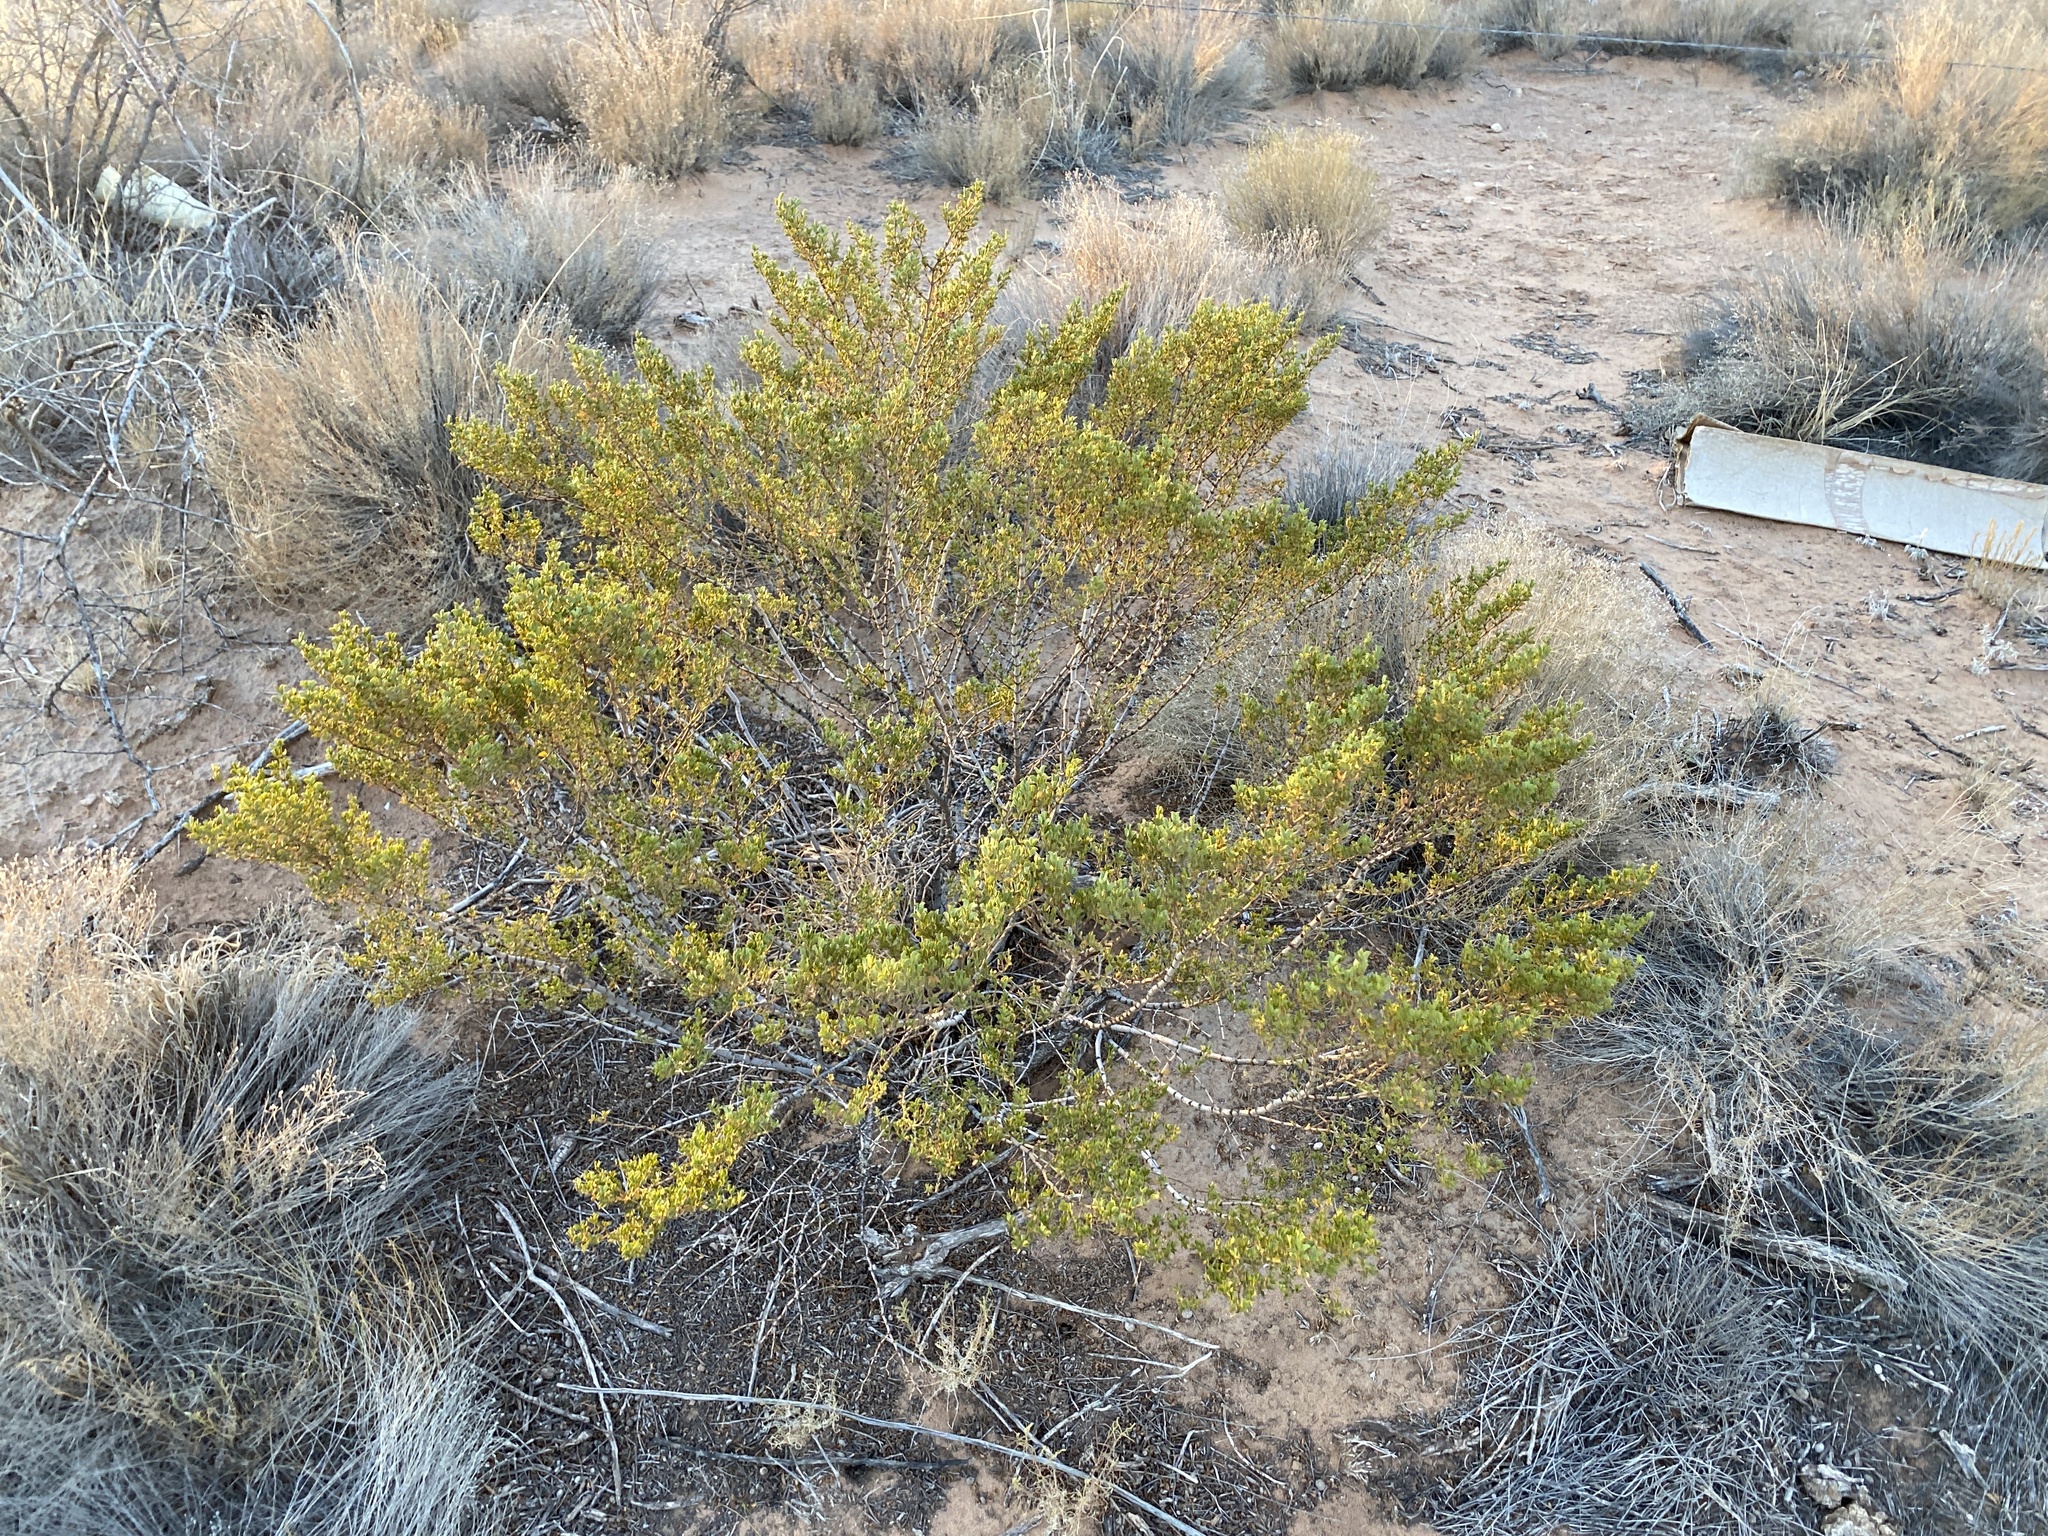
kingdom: Plantae
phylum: Tracheophyta
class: Magnoliopsida
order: Zygophyllales
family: Zygophyllaceae
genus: Larrea
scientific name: Larrea tridentata
